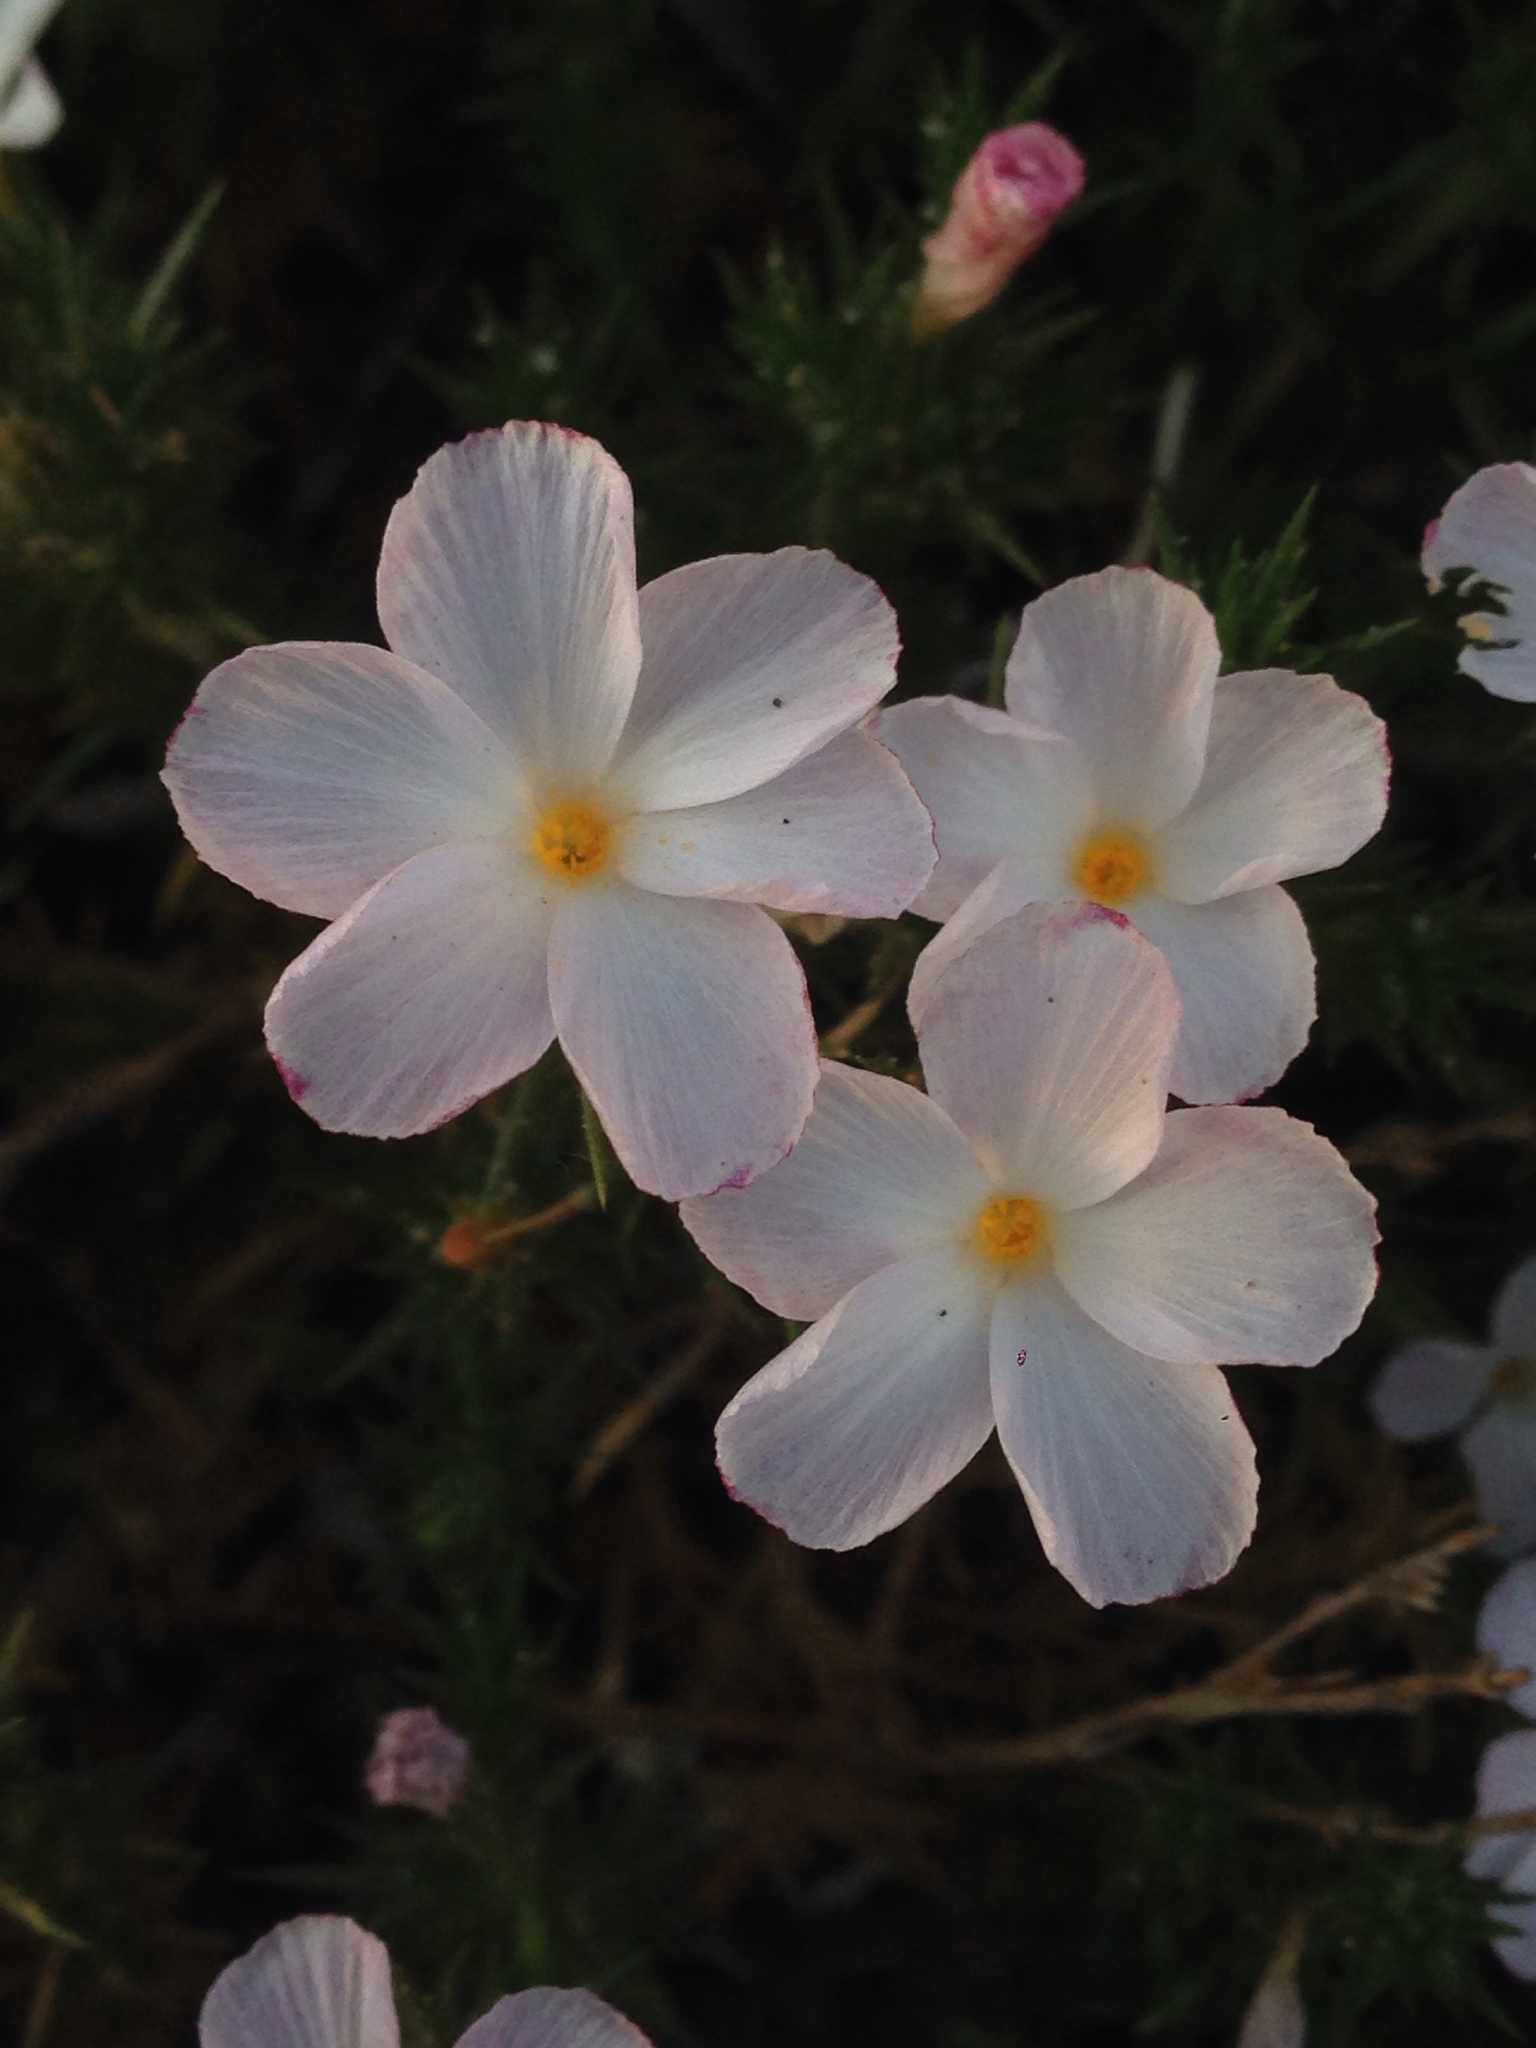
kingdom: Plantae
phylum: Tracheophyta
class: Magnoliopsida
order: Ericales
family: Polemoniaceae
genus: Linanthus
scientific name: Linanthus pungens
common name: Granite prickly phlox
